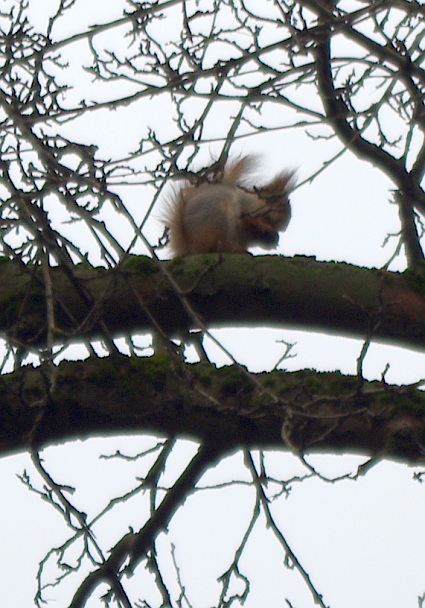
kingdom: Animalia
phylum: Chordata
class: Mammalia
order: Rodentia
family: Sciuridae
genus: Sciurus
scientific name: Sciurus vulgaris
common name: Eurasian red squirrel
